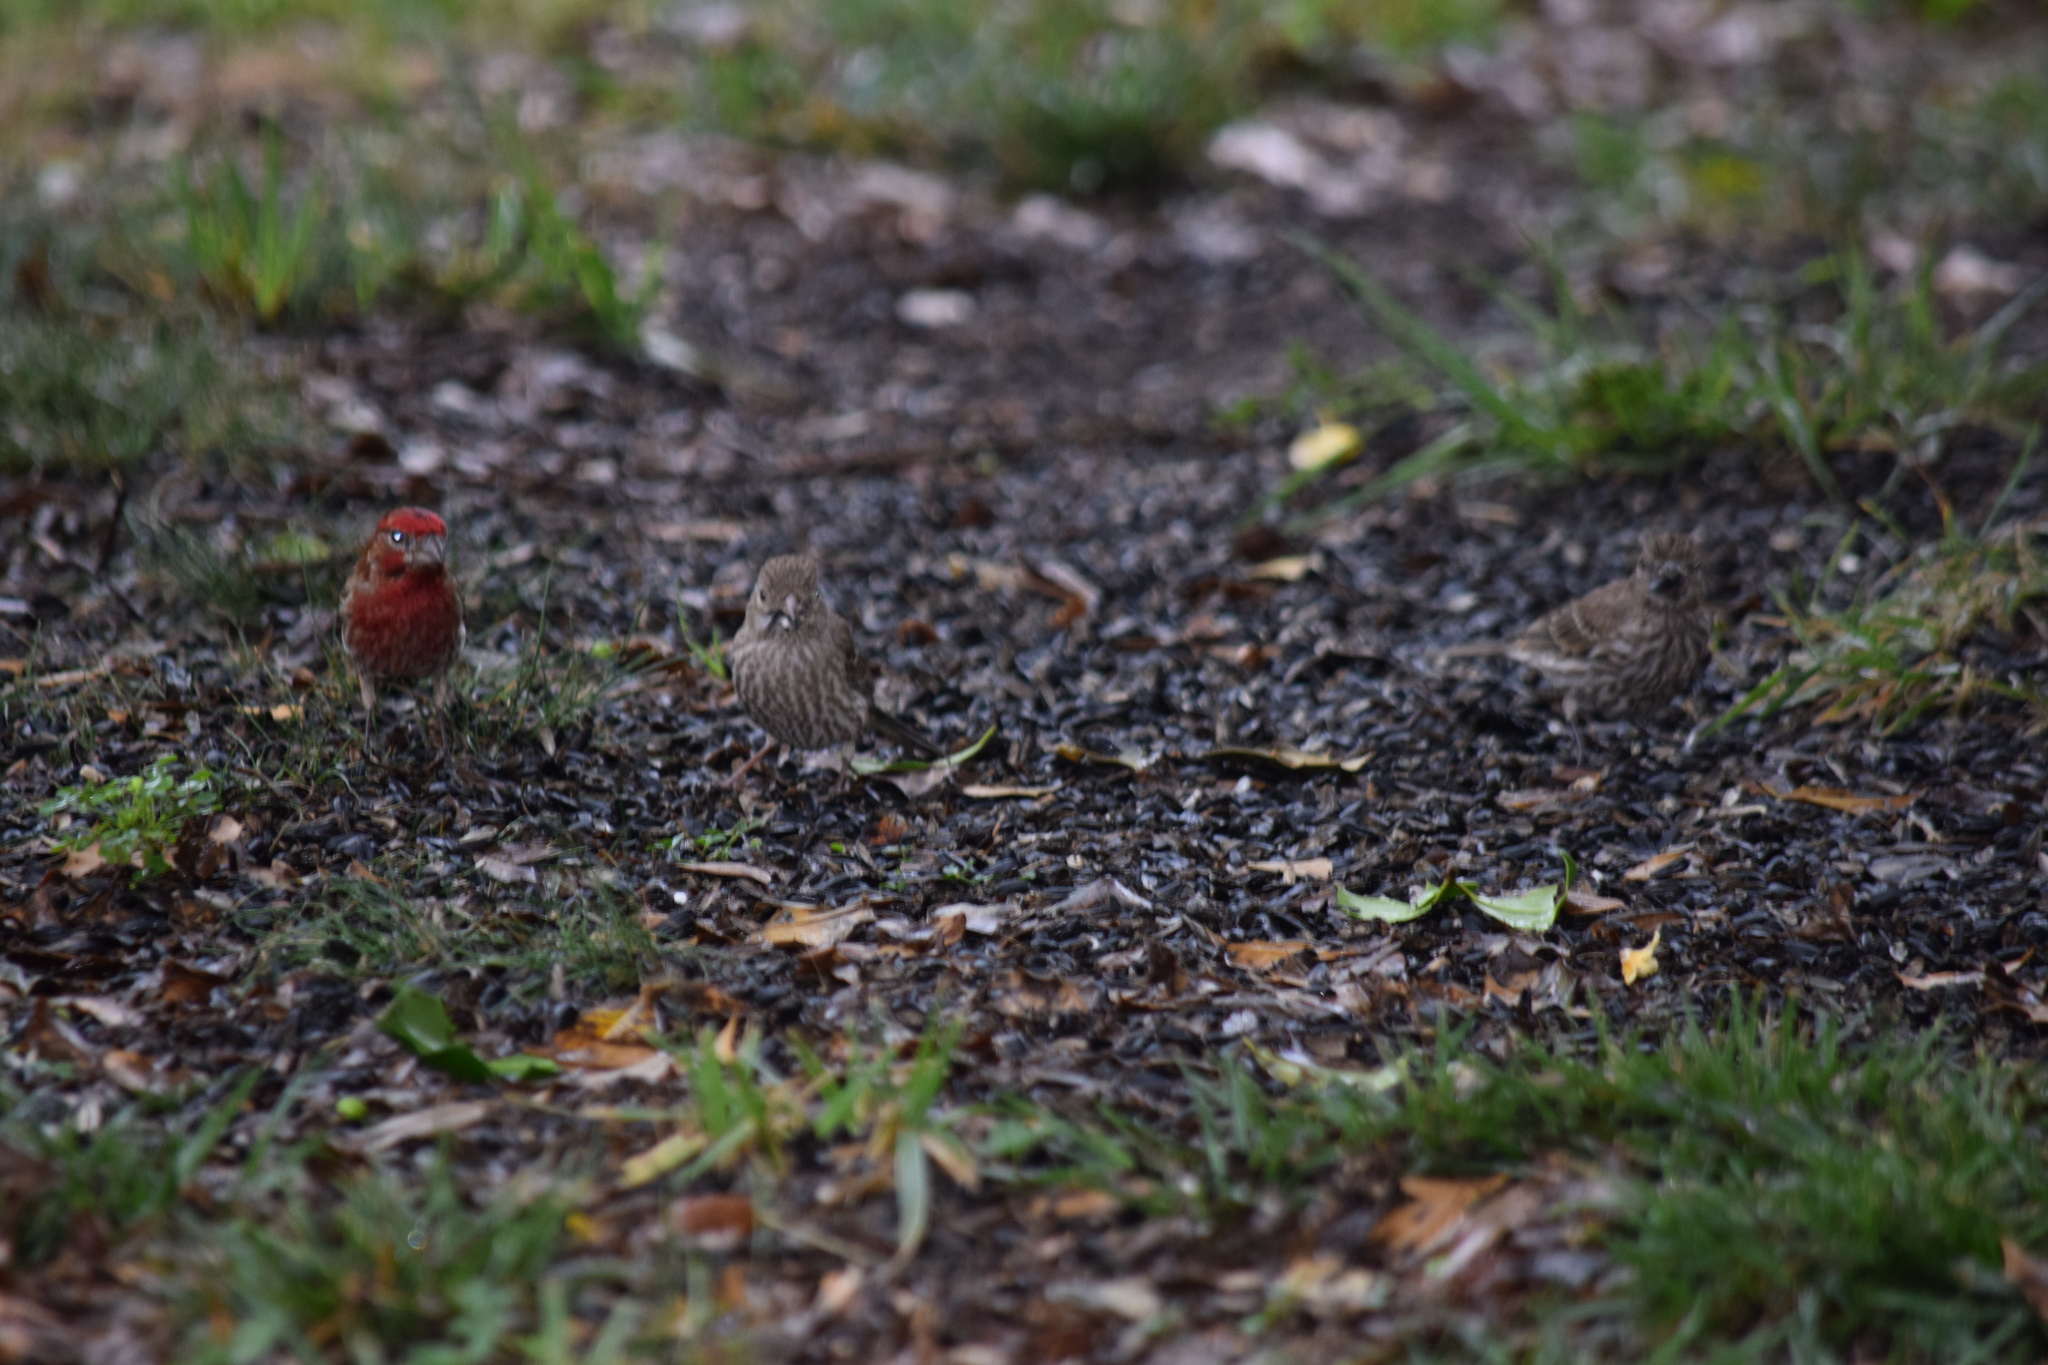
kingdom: Animalia
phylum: Chordata
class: Aves
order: Passeriformes
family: Fringillidae
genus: Haemorhous
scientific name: Haemorhous mexicanus
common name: House finch
